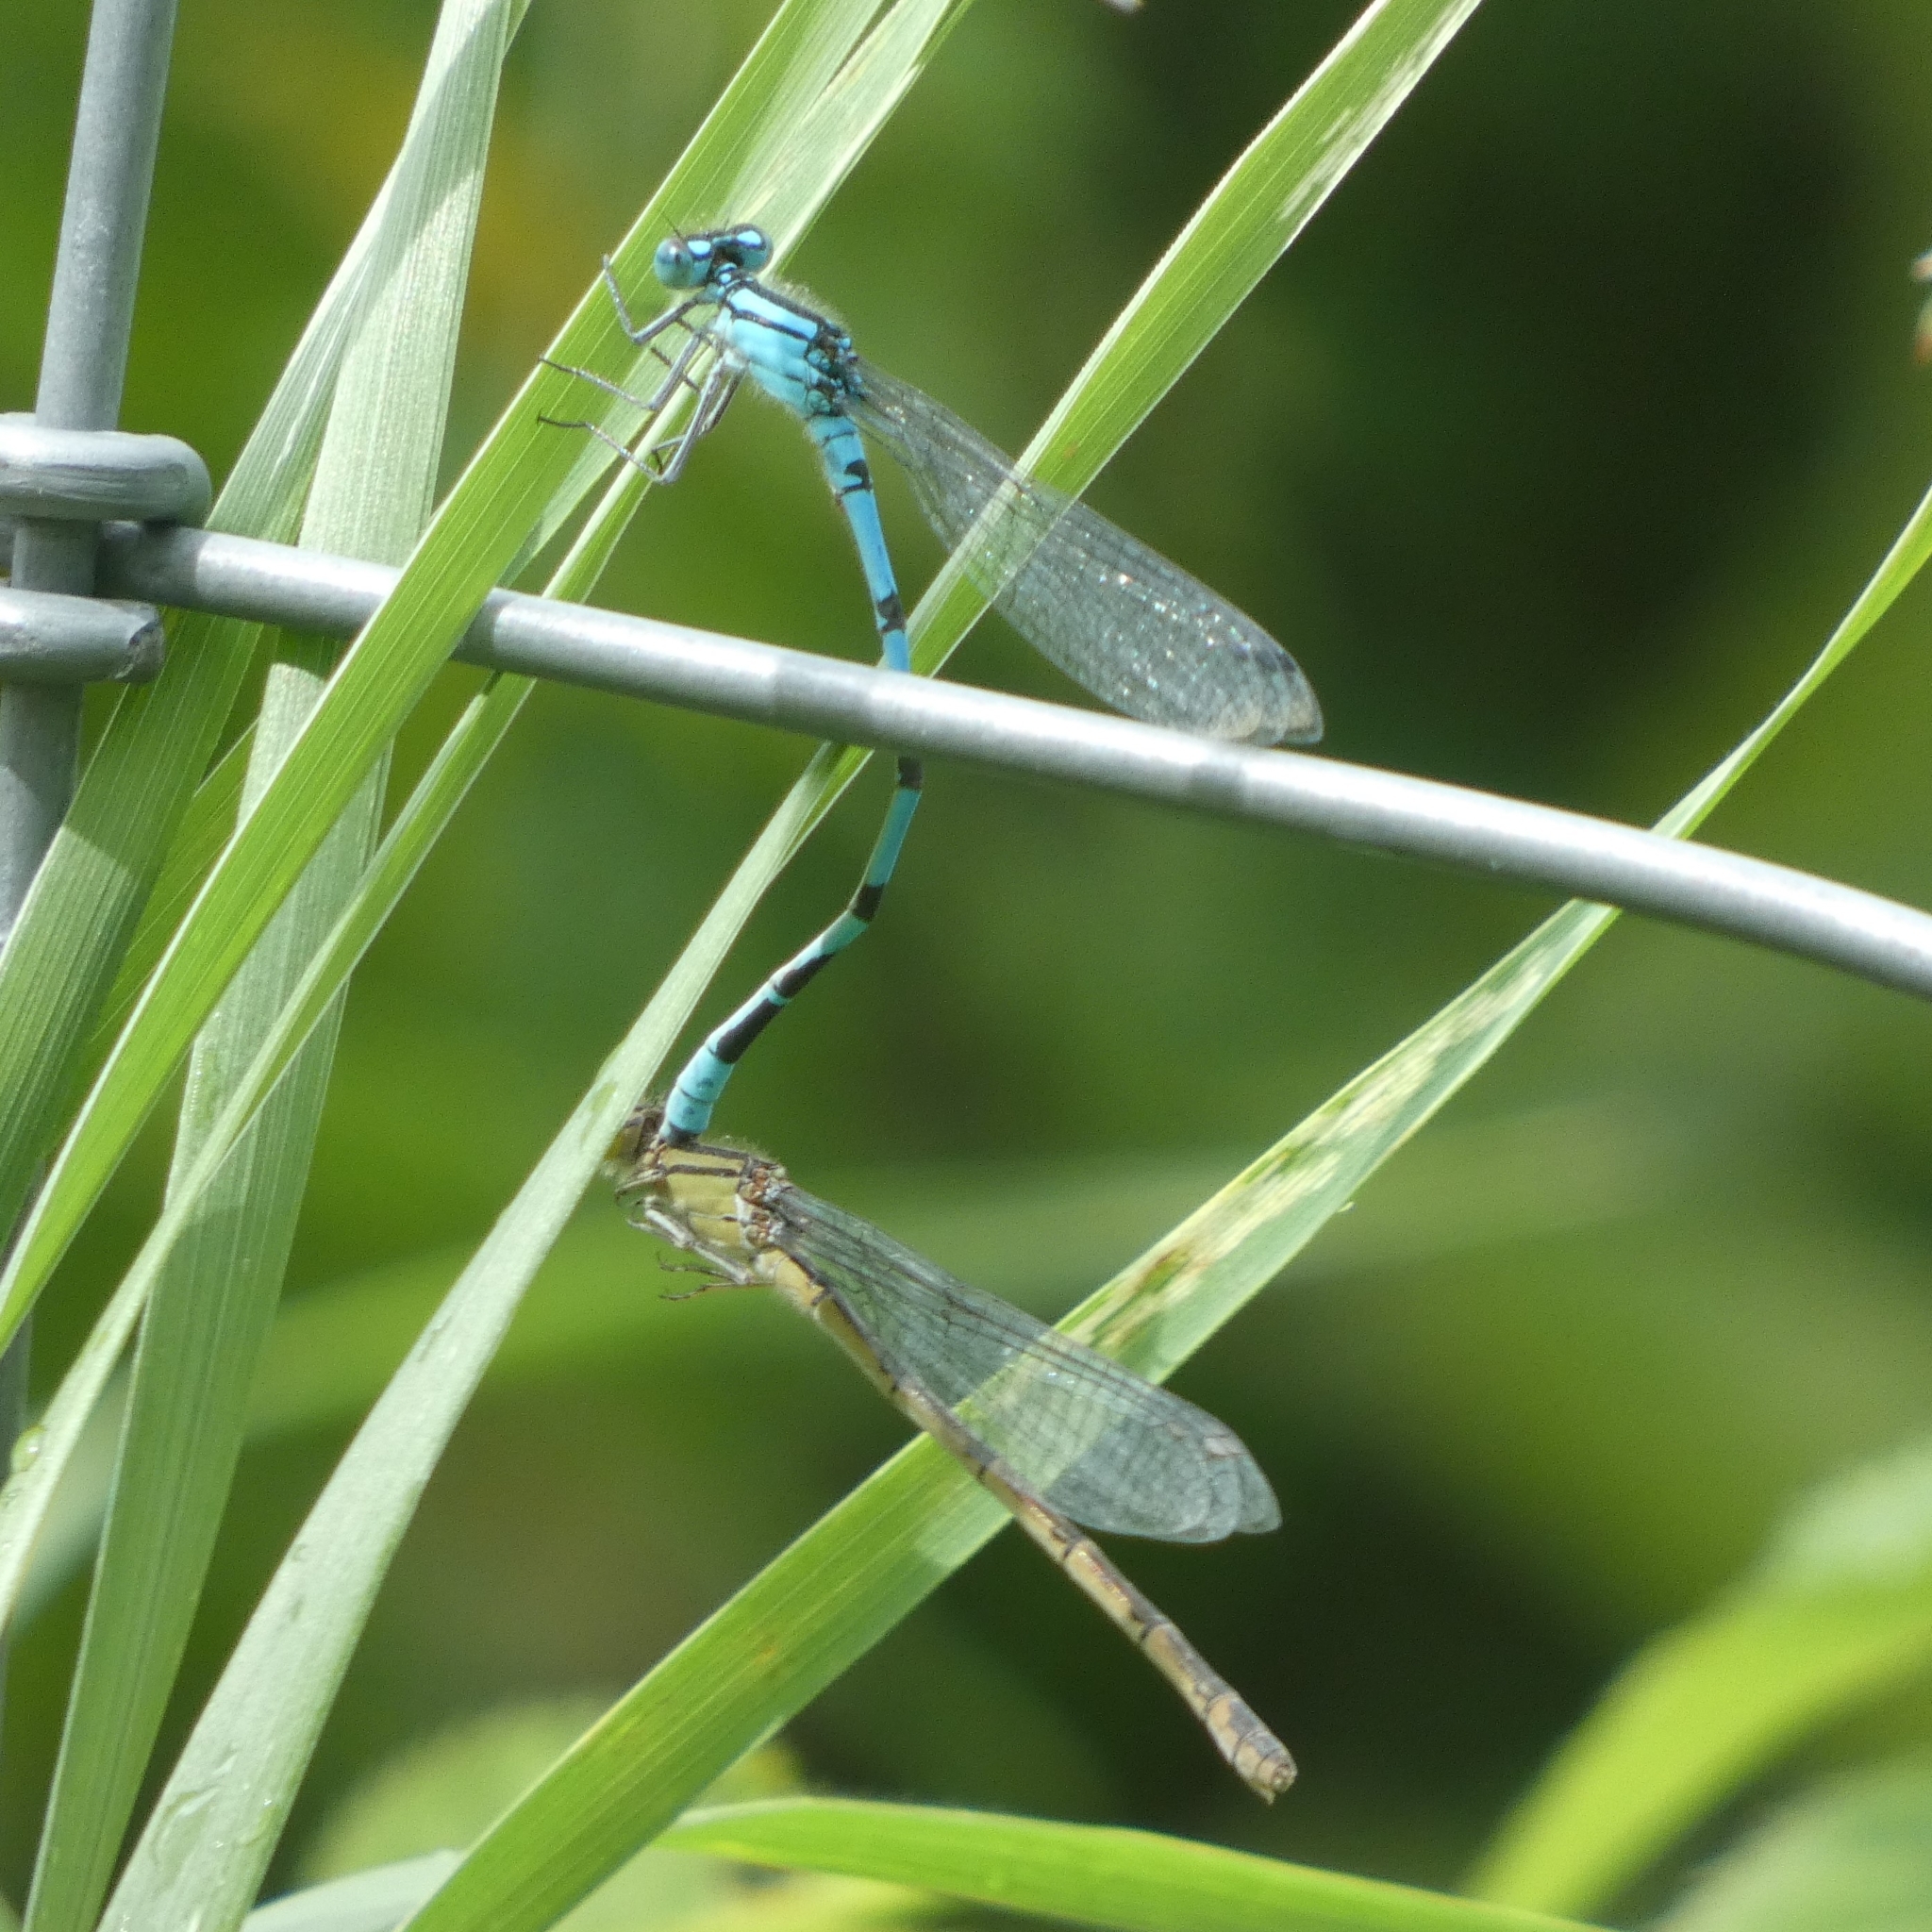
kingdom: Animalia
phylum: Arthropoda
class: Insecta
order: Odonata
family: Coenagrionidae
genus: Enallagma
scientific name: Enallagma cyathigerum
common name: Common blue damselfly
